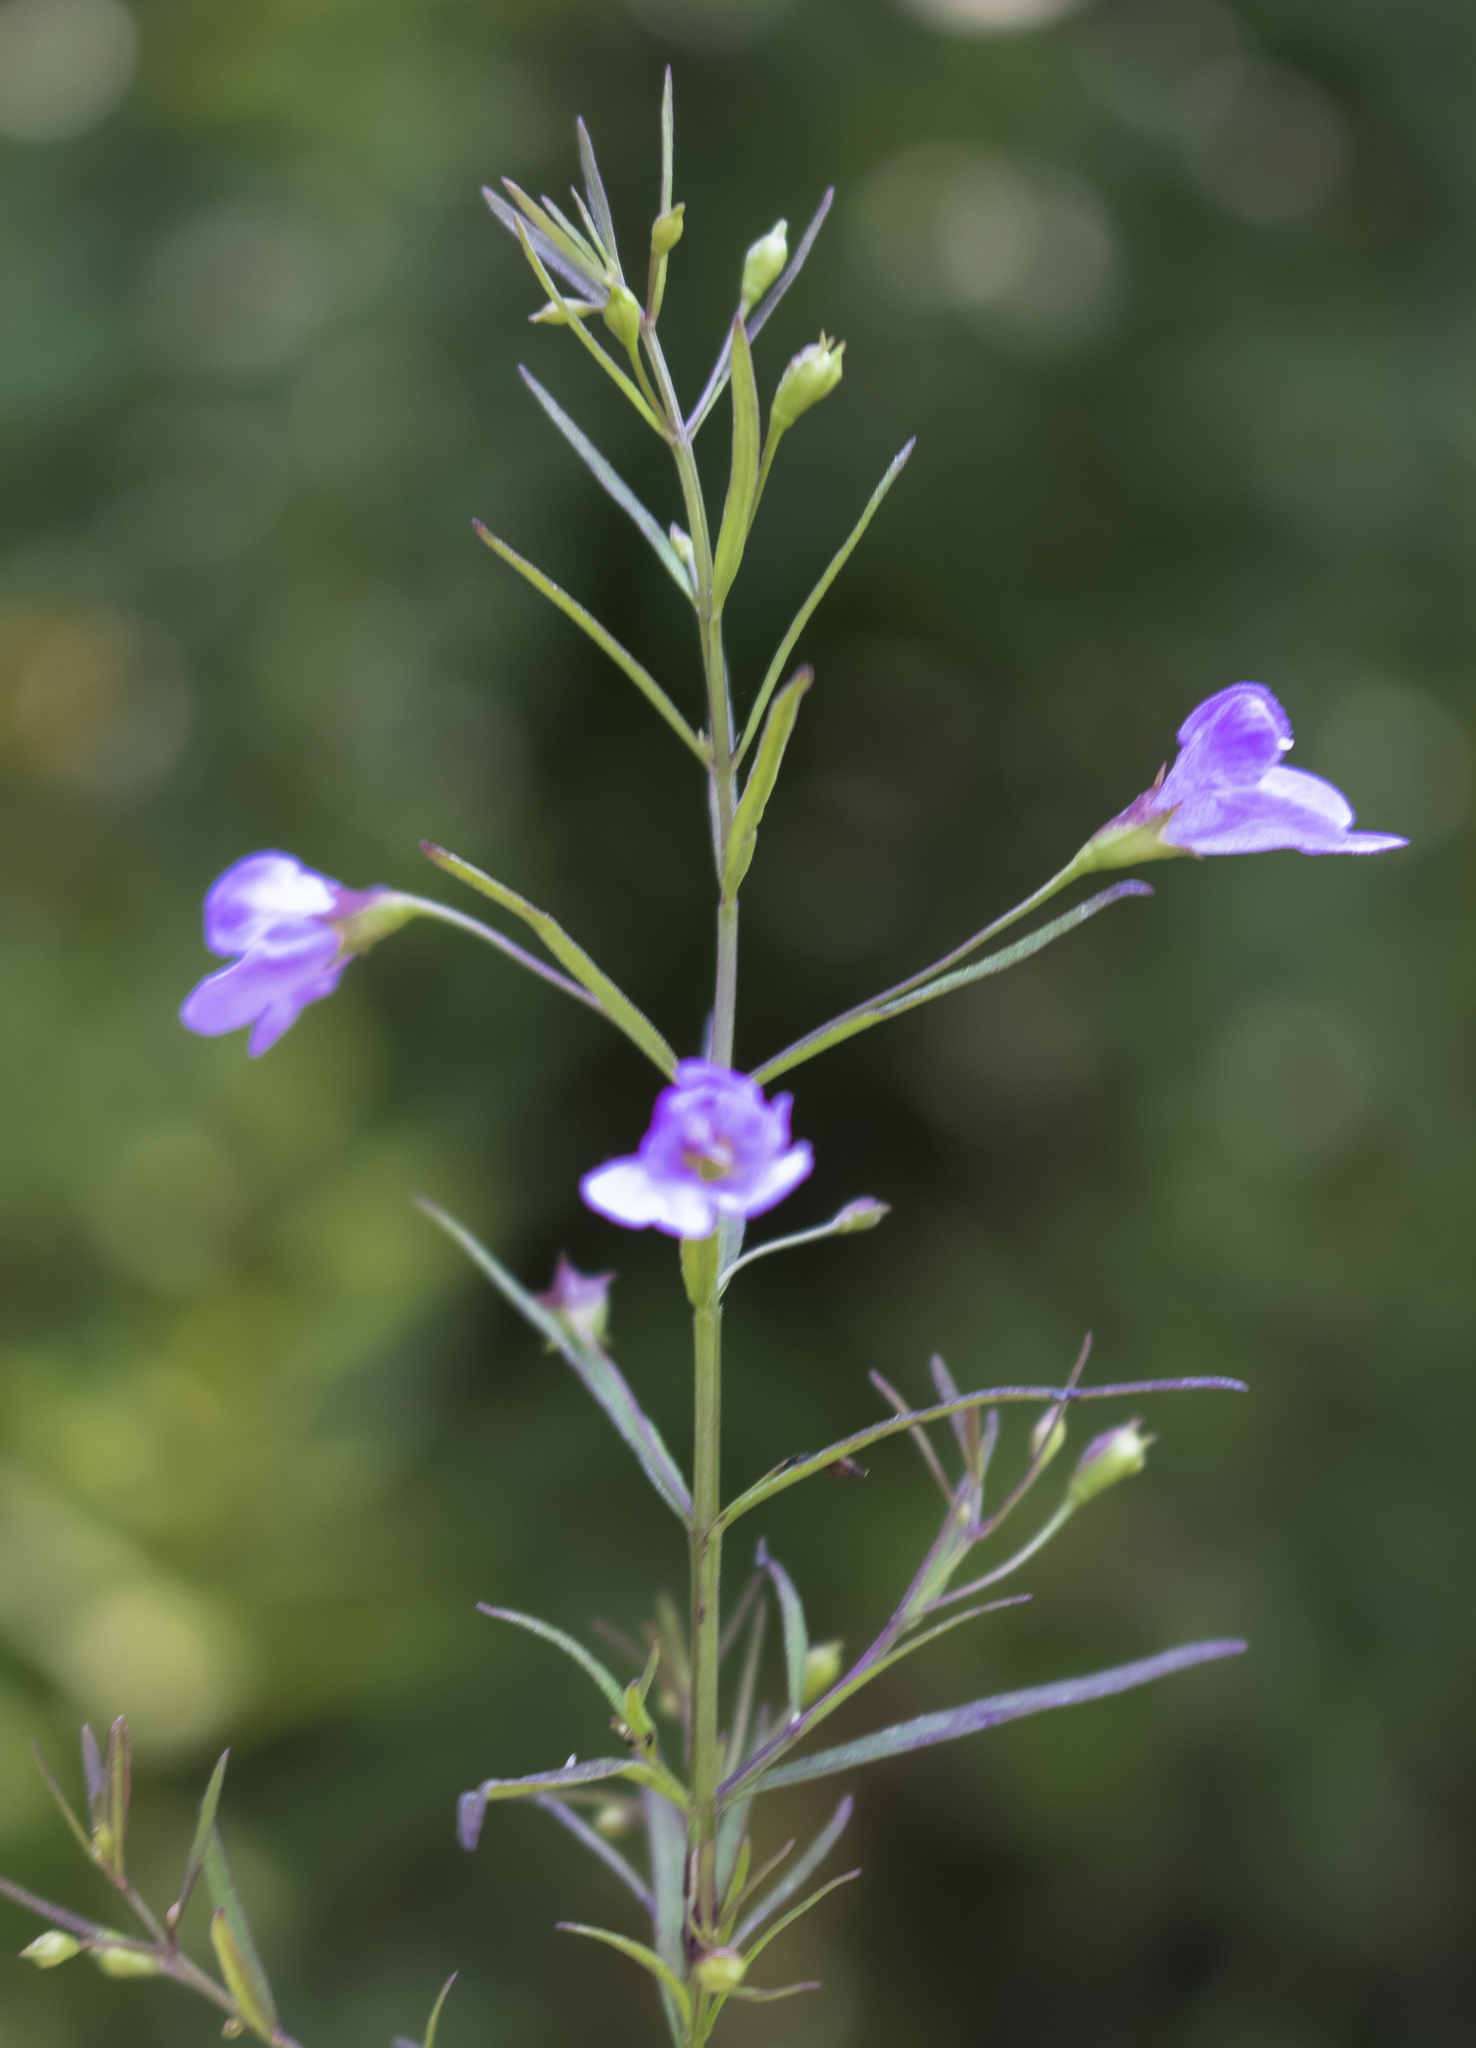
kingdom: Plantae
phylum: Tracheophyta
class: Magnoliopsida
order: Lamiales
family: Orobanchaceae
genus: Agalinis
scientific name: Agalinis tenuifolia
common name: Slender agalinis
